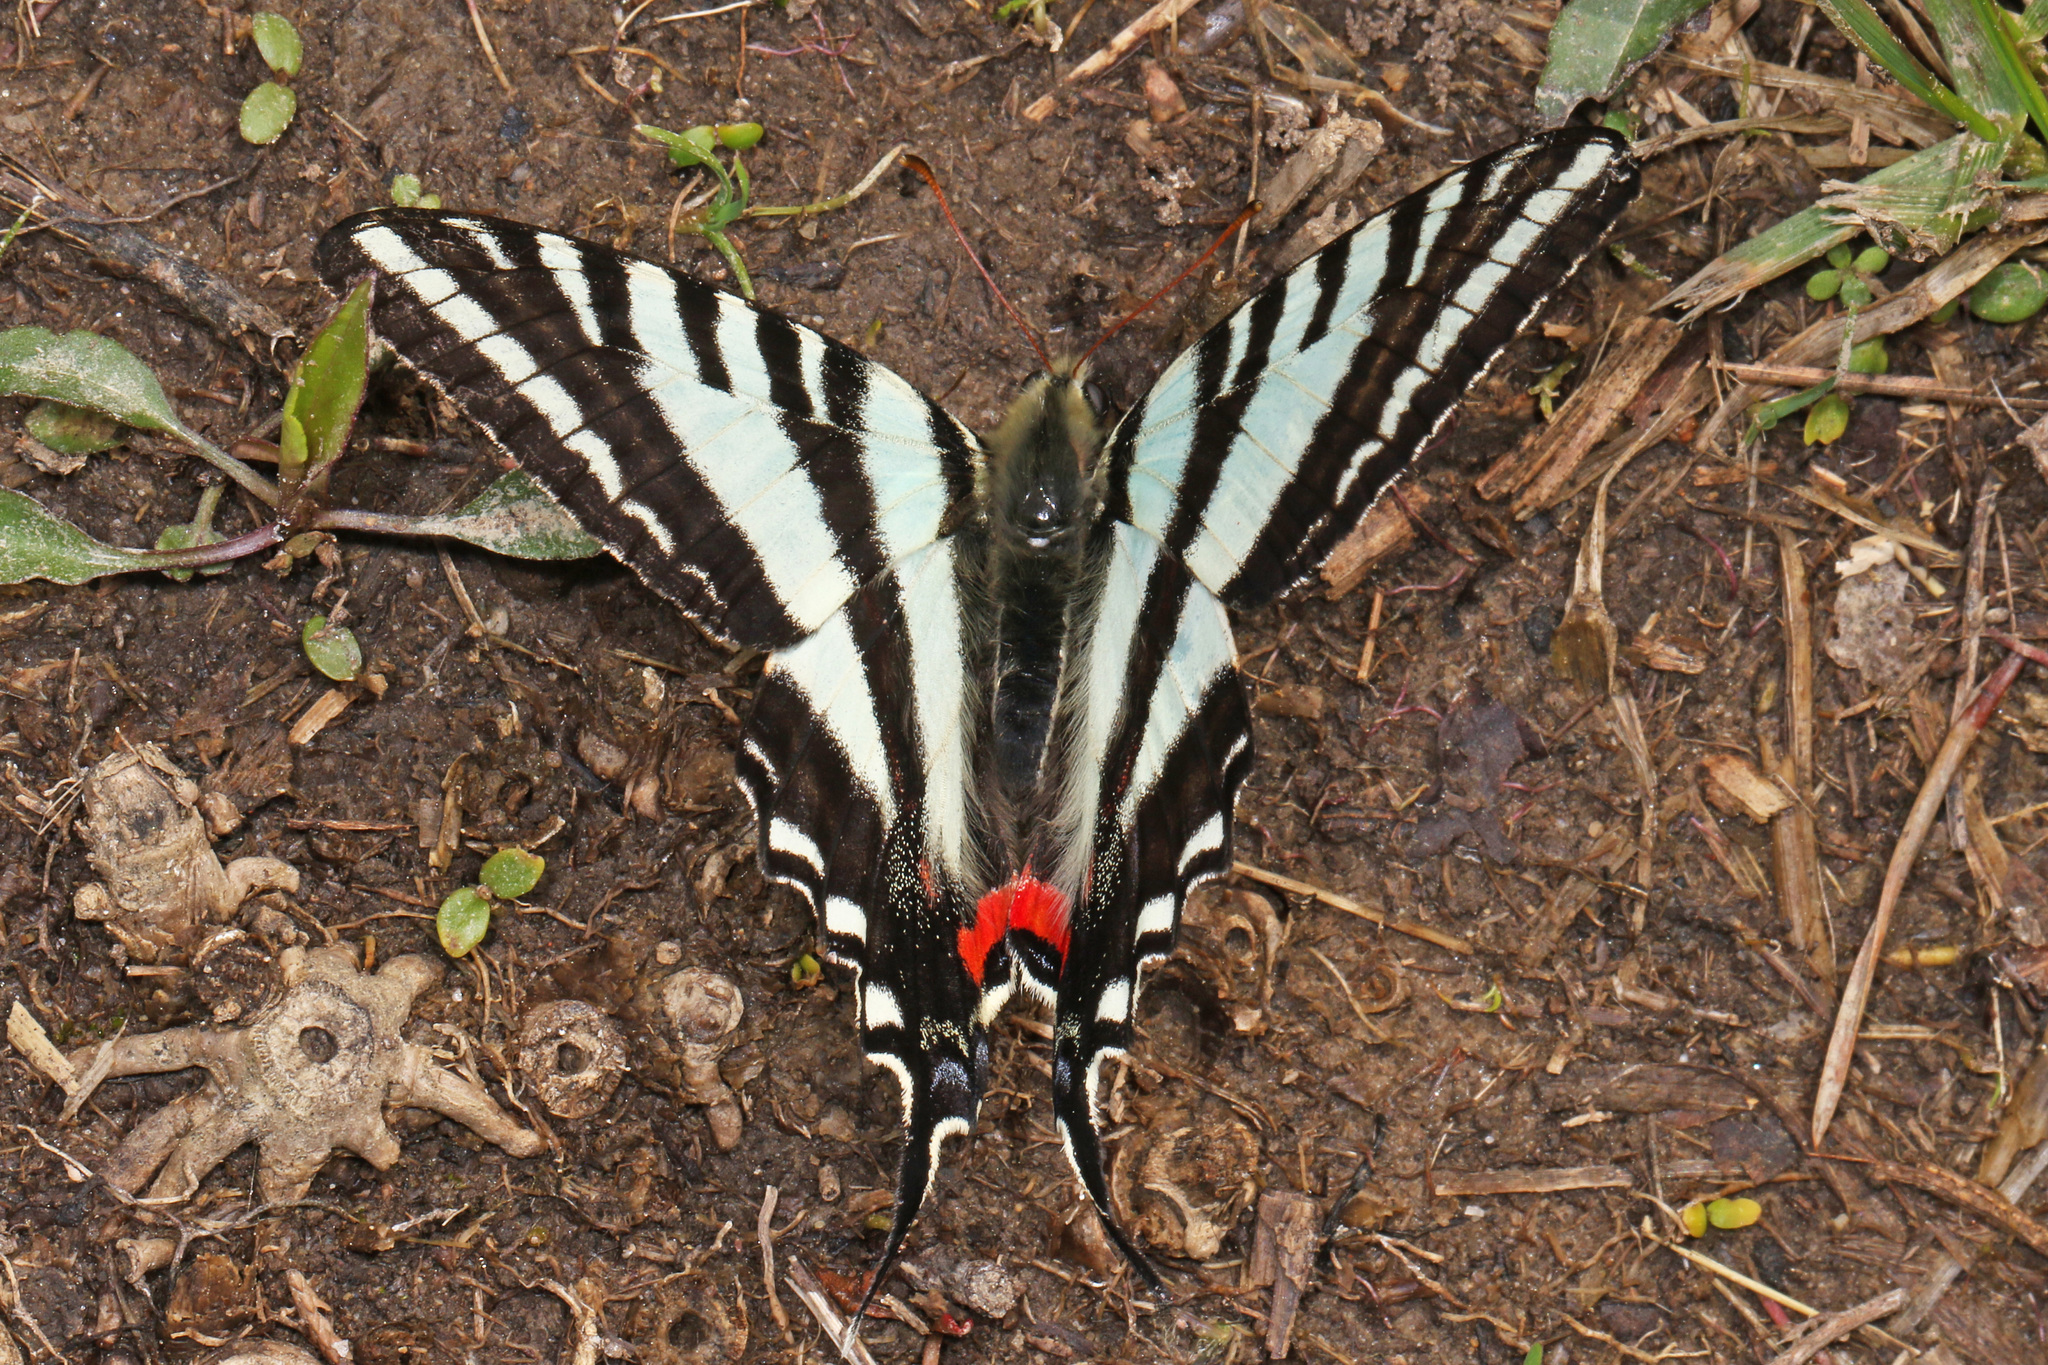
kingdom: Animalia
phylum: Arthropoda
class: Insecta
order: Lepidoptera
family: Papilionidae
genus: Protographium
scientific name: Protographium marcellus
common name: Zebra swallowtail
